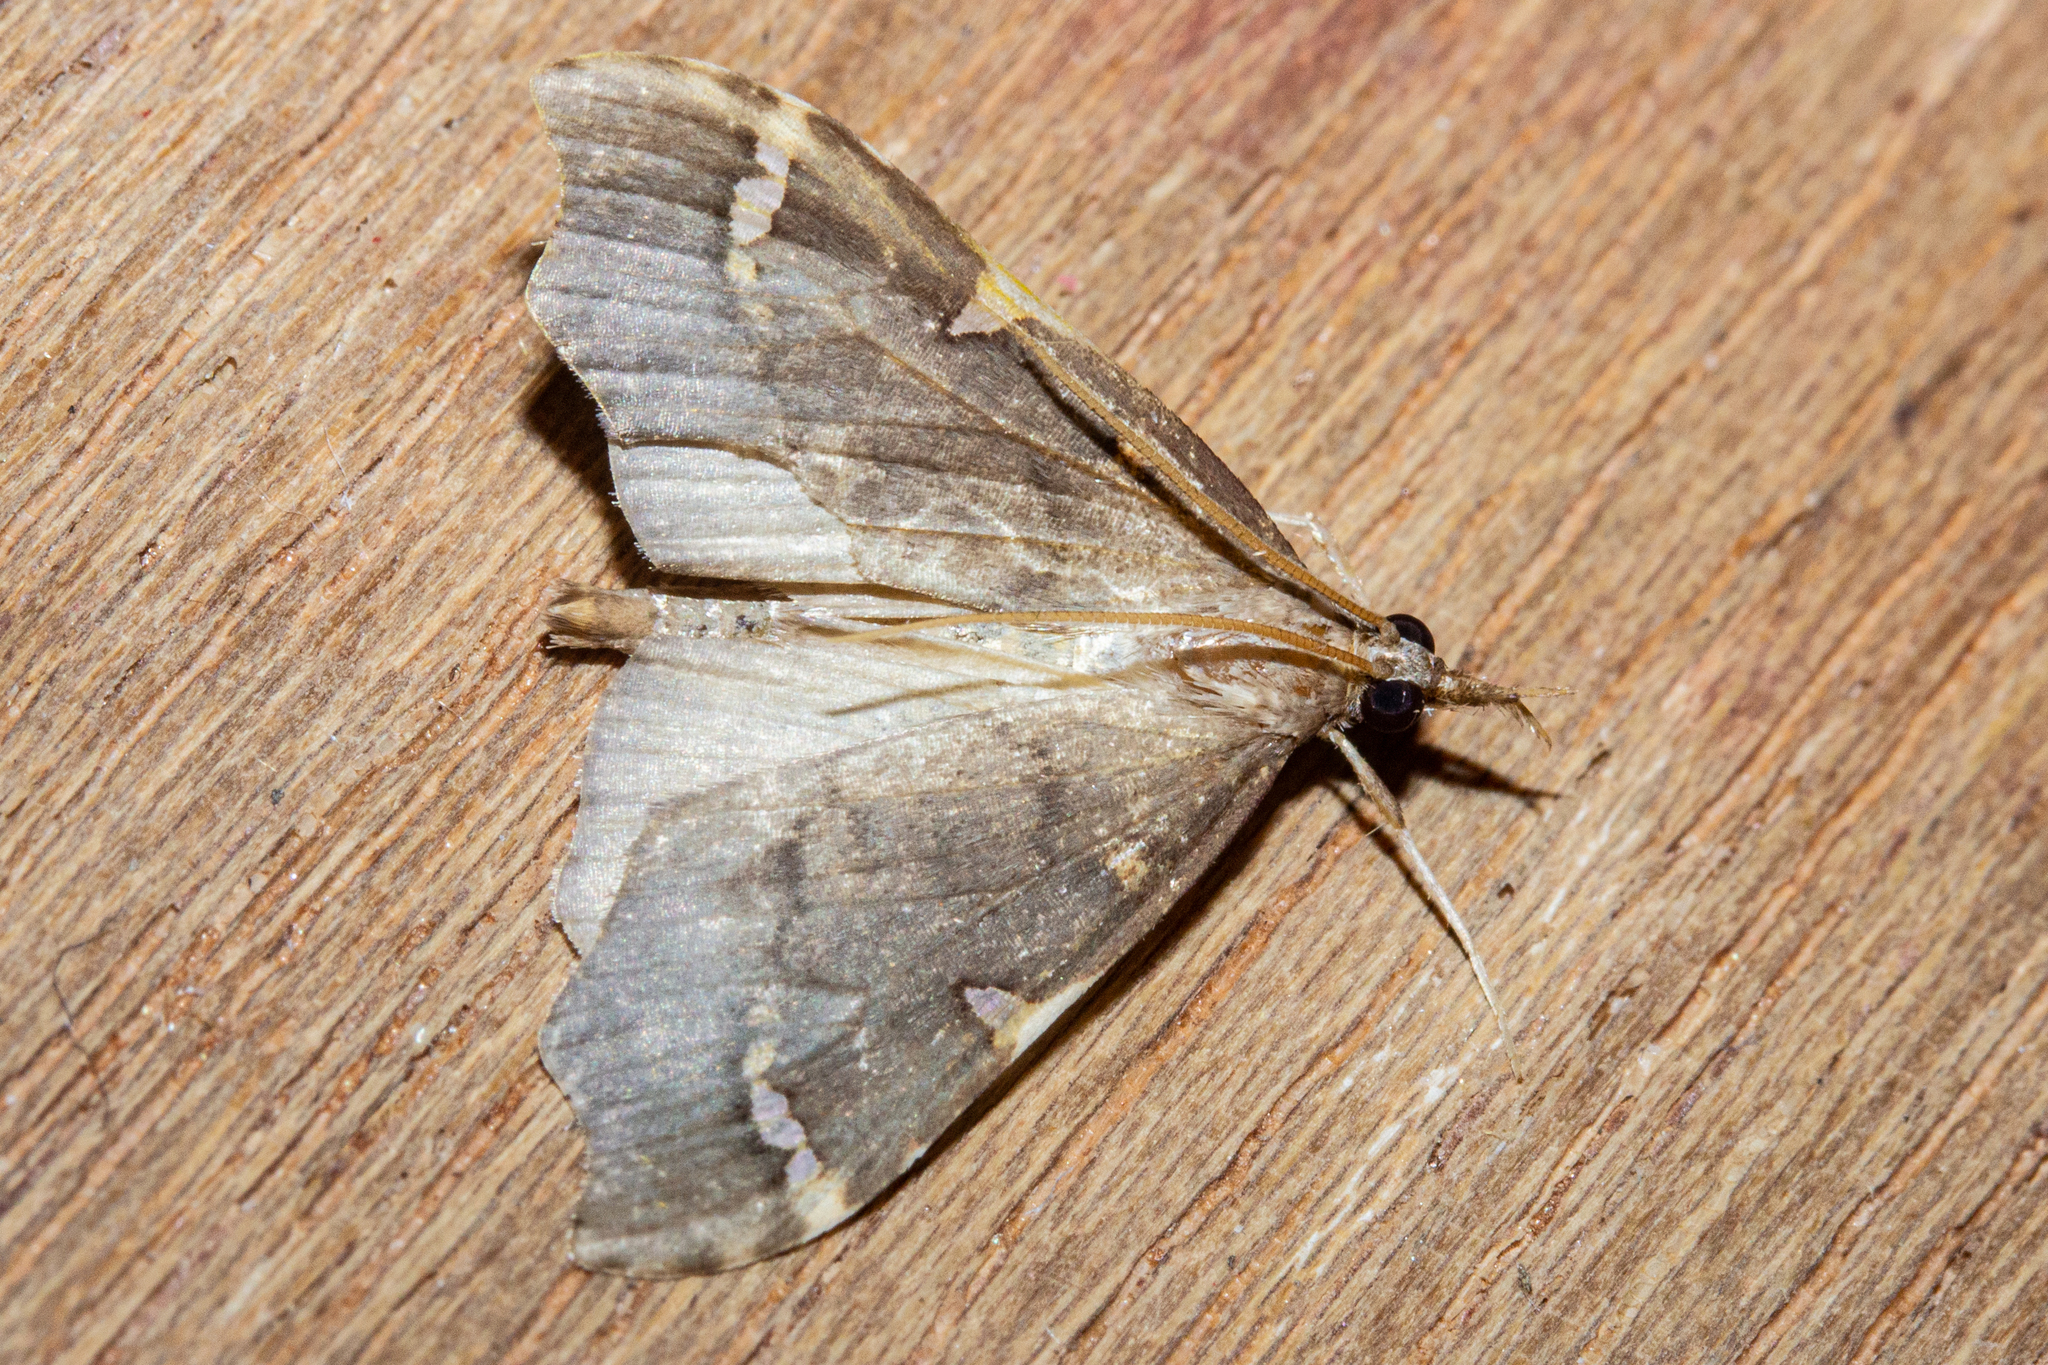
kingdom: Animalia
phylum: Arthropoda
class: Insecta
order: Lepidoptera
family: Crambidae
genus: Deana
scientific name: Deana hybreasalis
